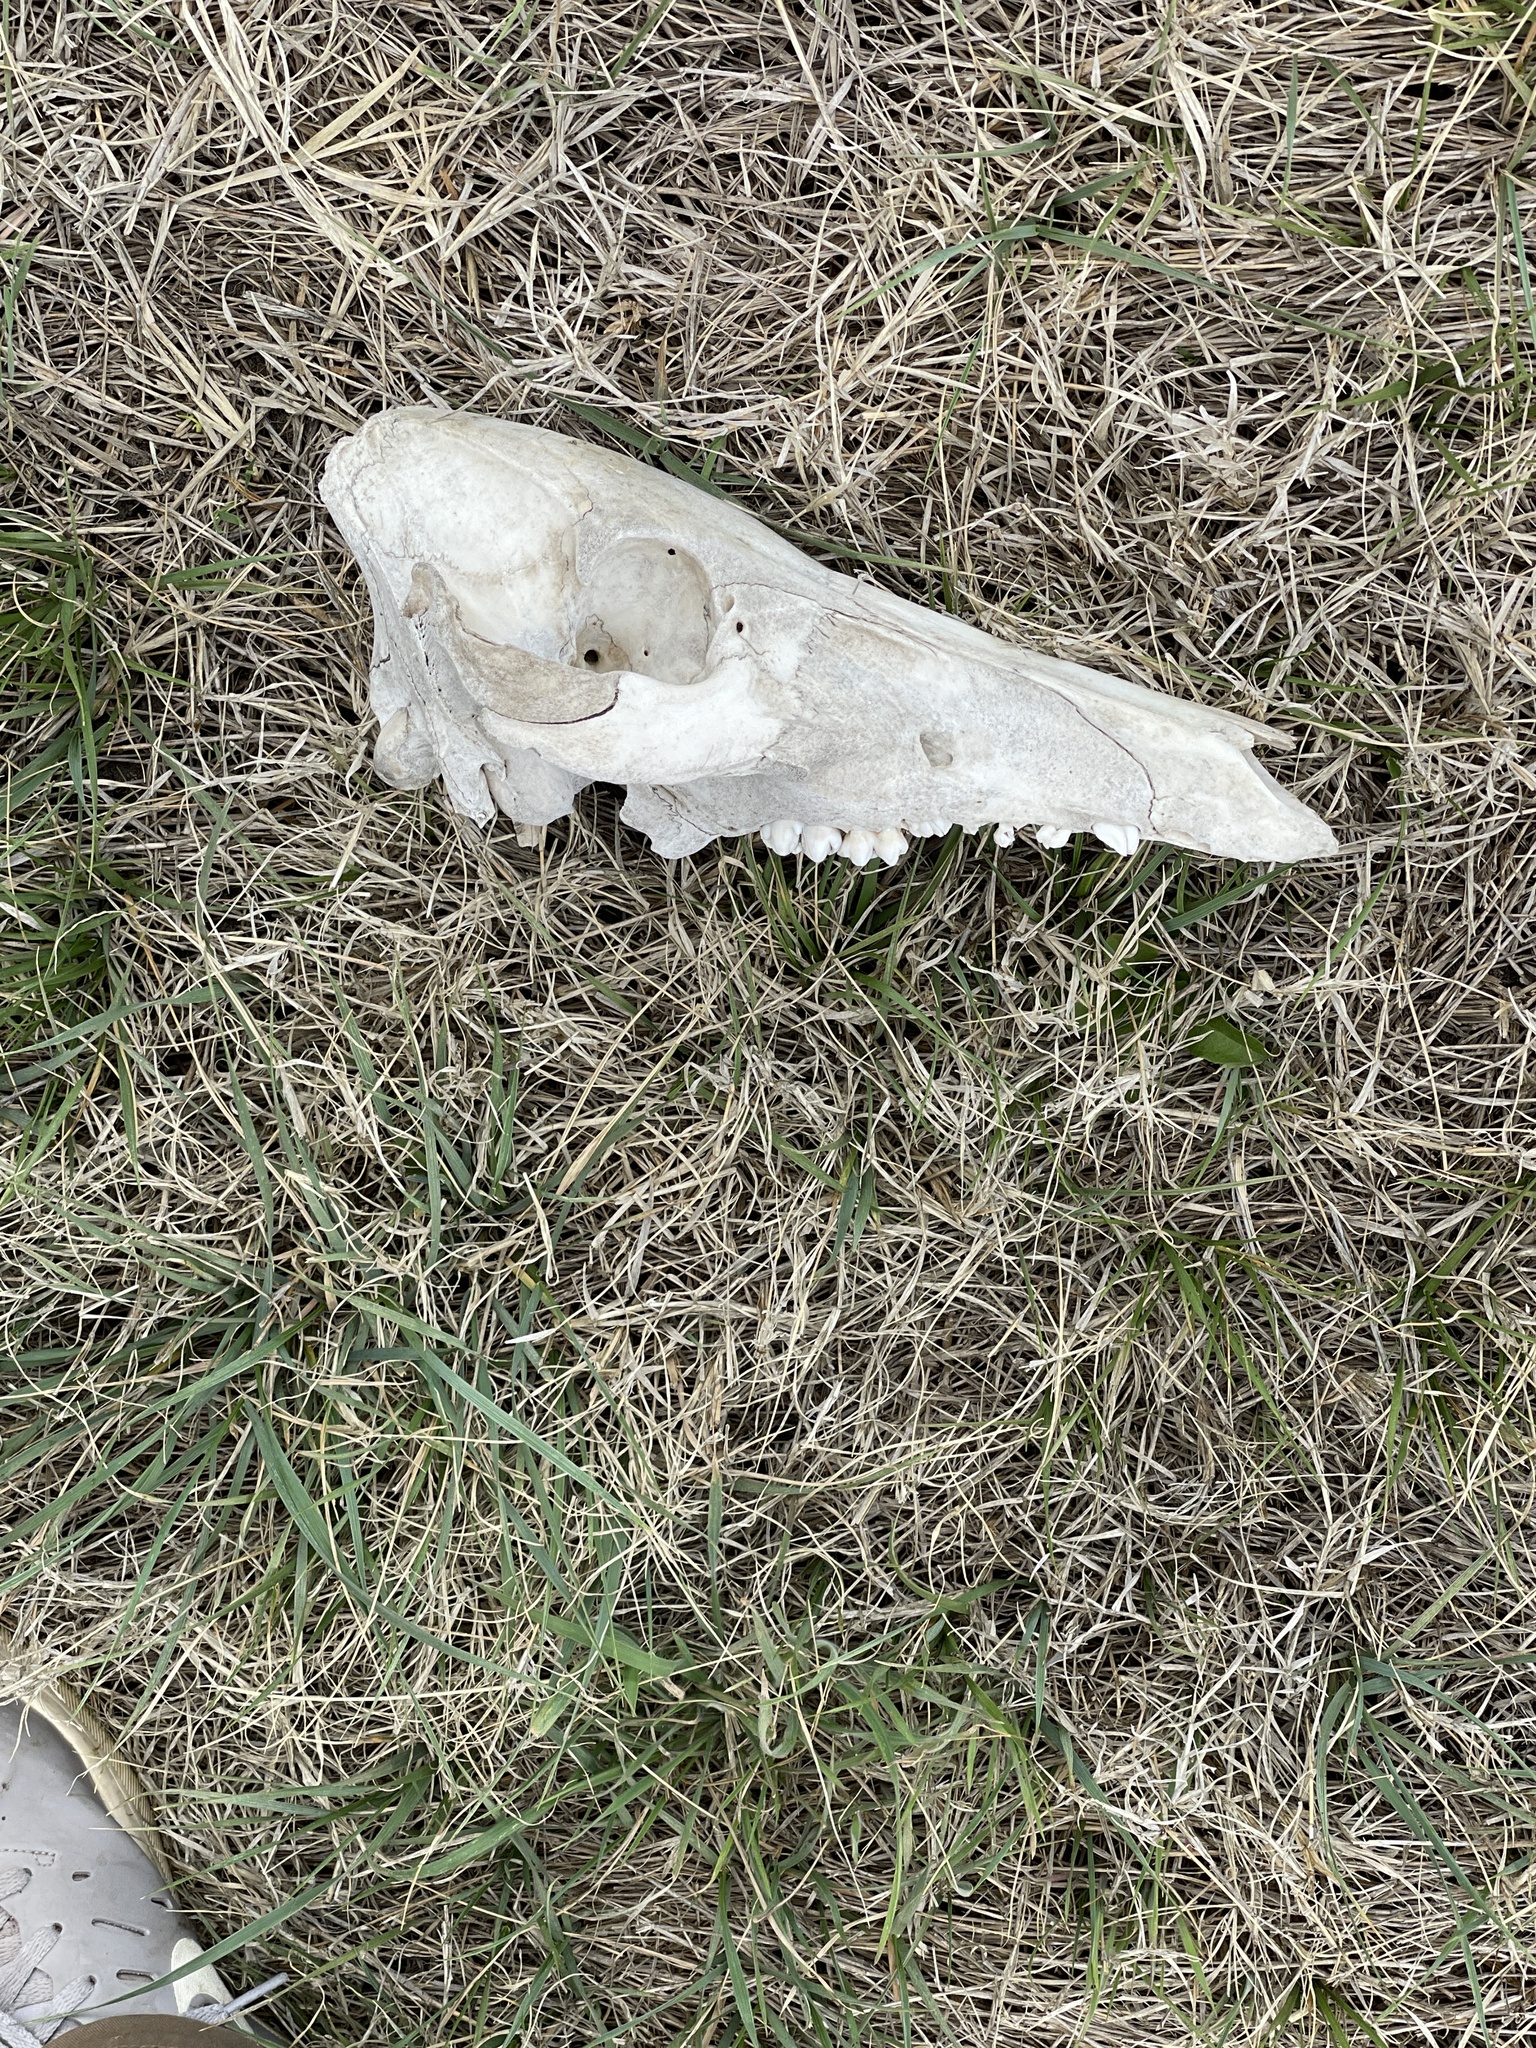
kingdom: Animalia
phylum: Chordata
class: Mammalia
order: Artiodactyla
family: Suidae
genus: Sus
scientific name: Sus scrofa
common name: Wild boar
